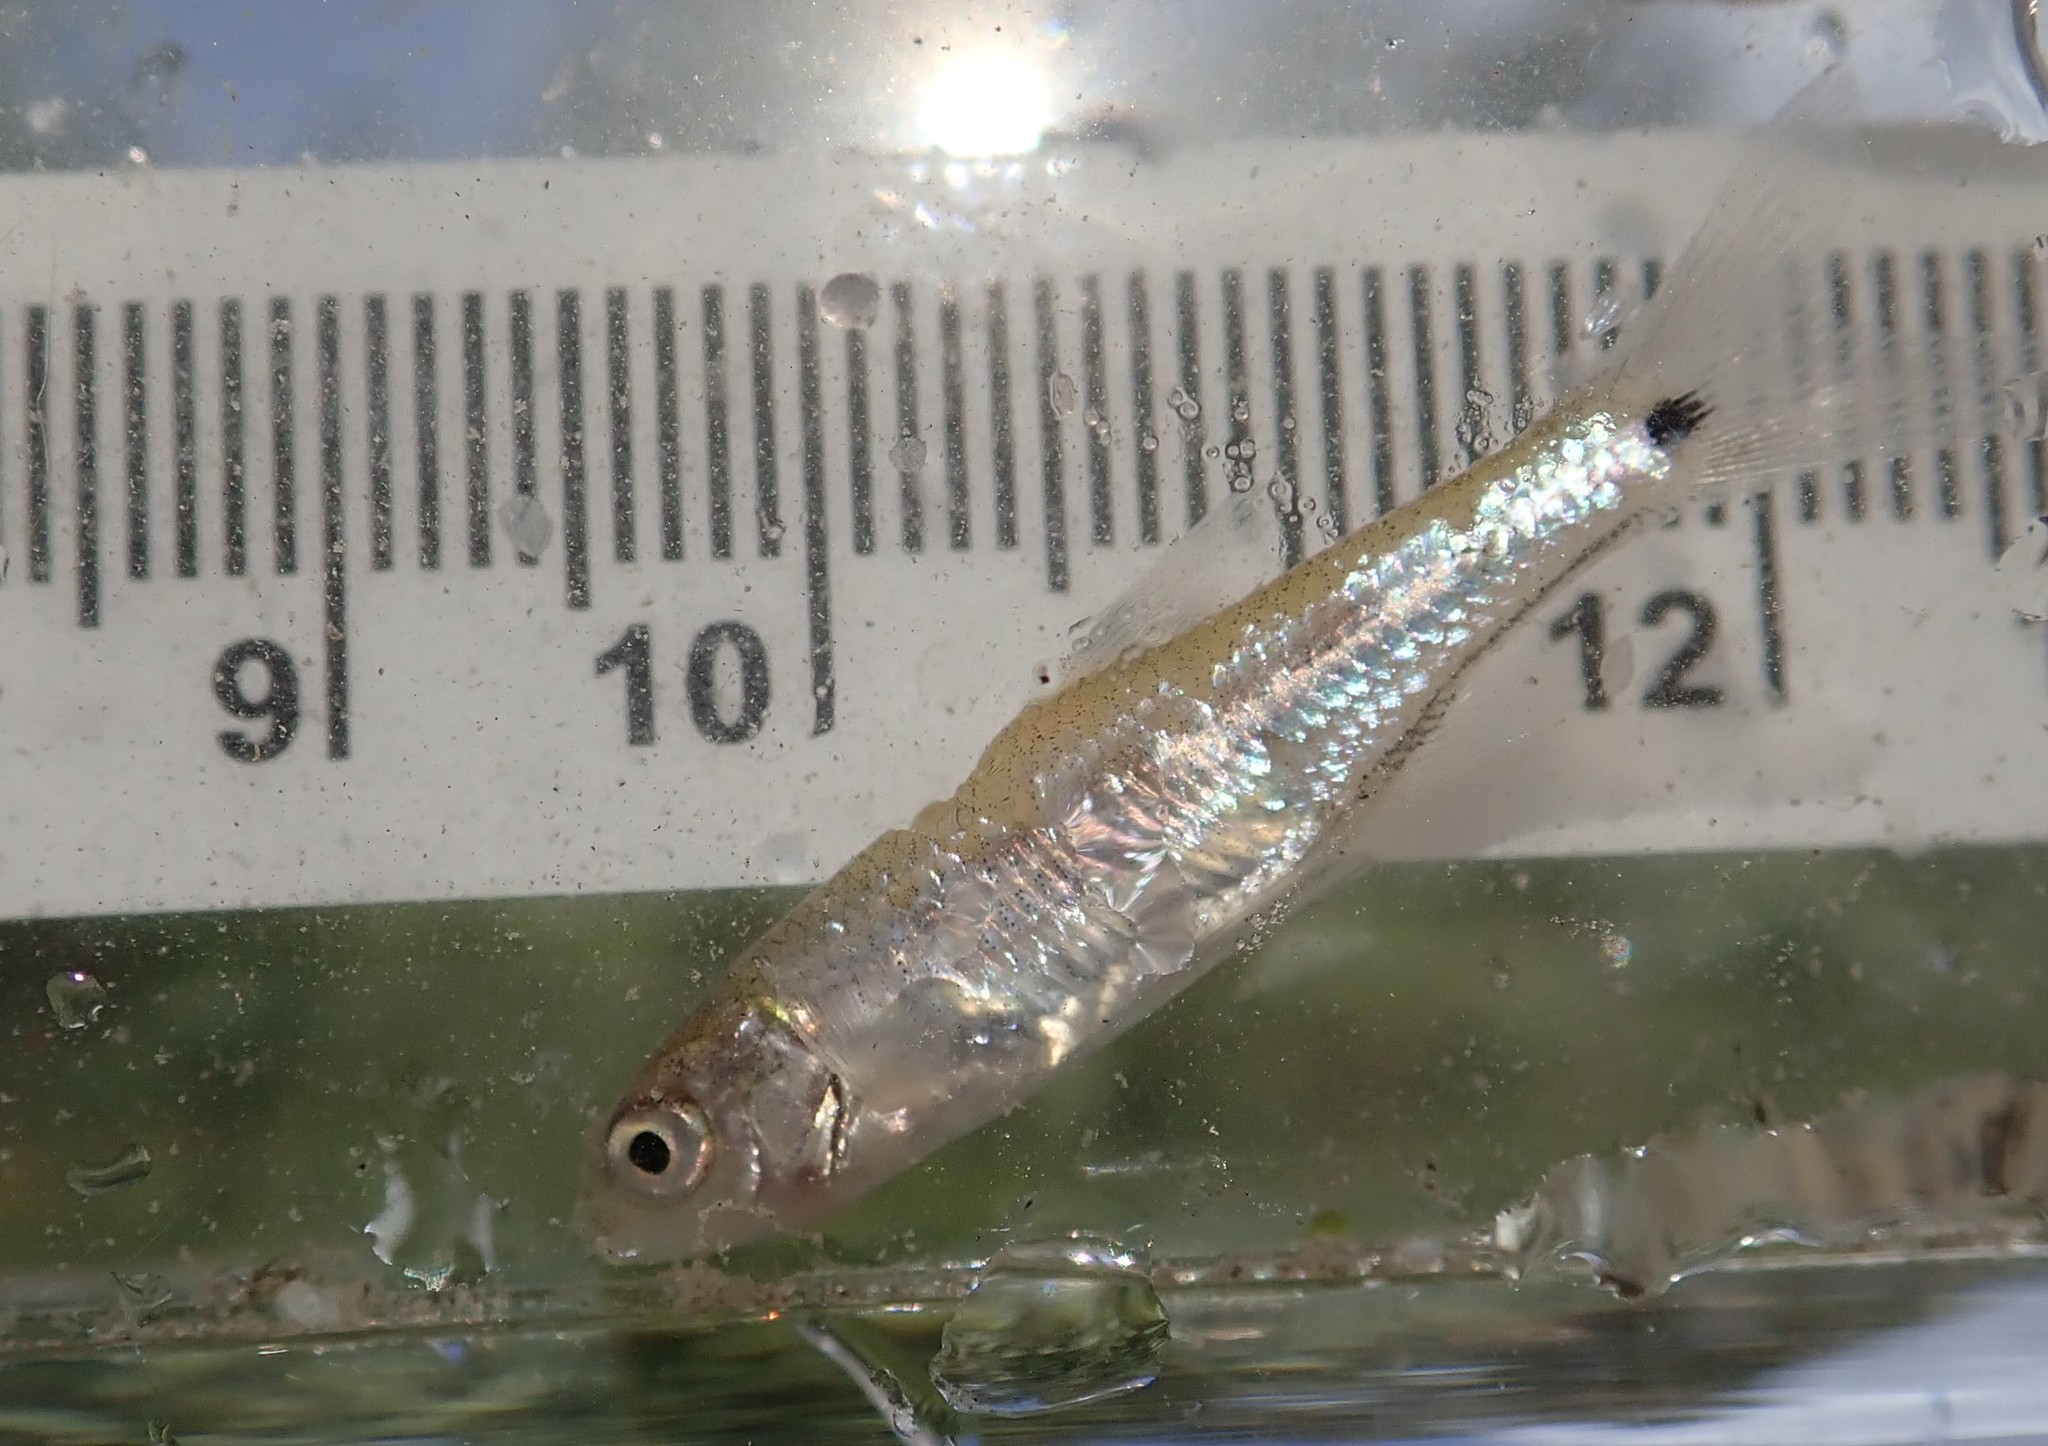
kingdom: Animalia
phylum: Chordata
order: Cypriniformes
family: Cyprinidae
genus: Notropis
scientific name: Notropis
